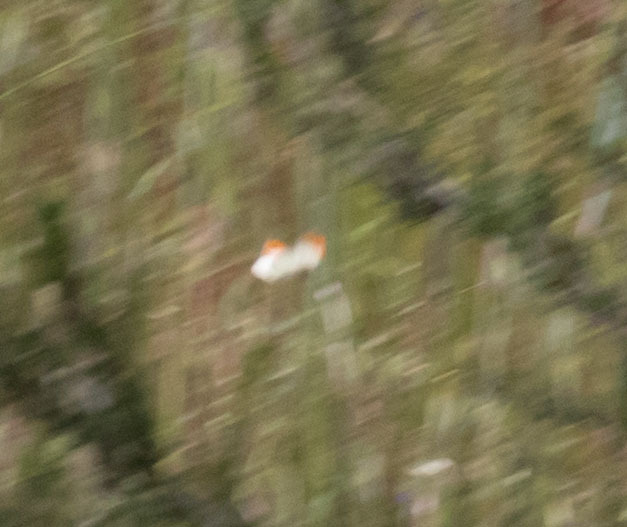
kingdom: Animalia
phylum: Arthropoda
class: Insecta
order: Lepidoptera
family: Pieridae
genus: Anthocharis
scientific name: Anthocharis sara
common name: Sara's orangetip
